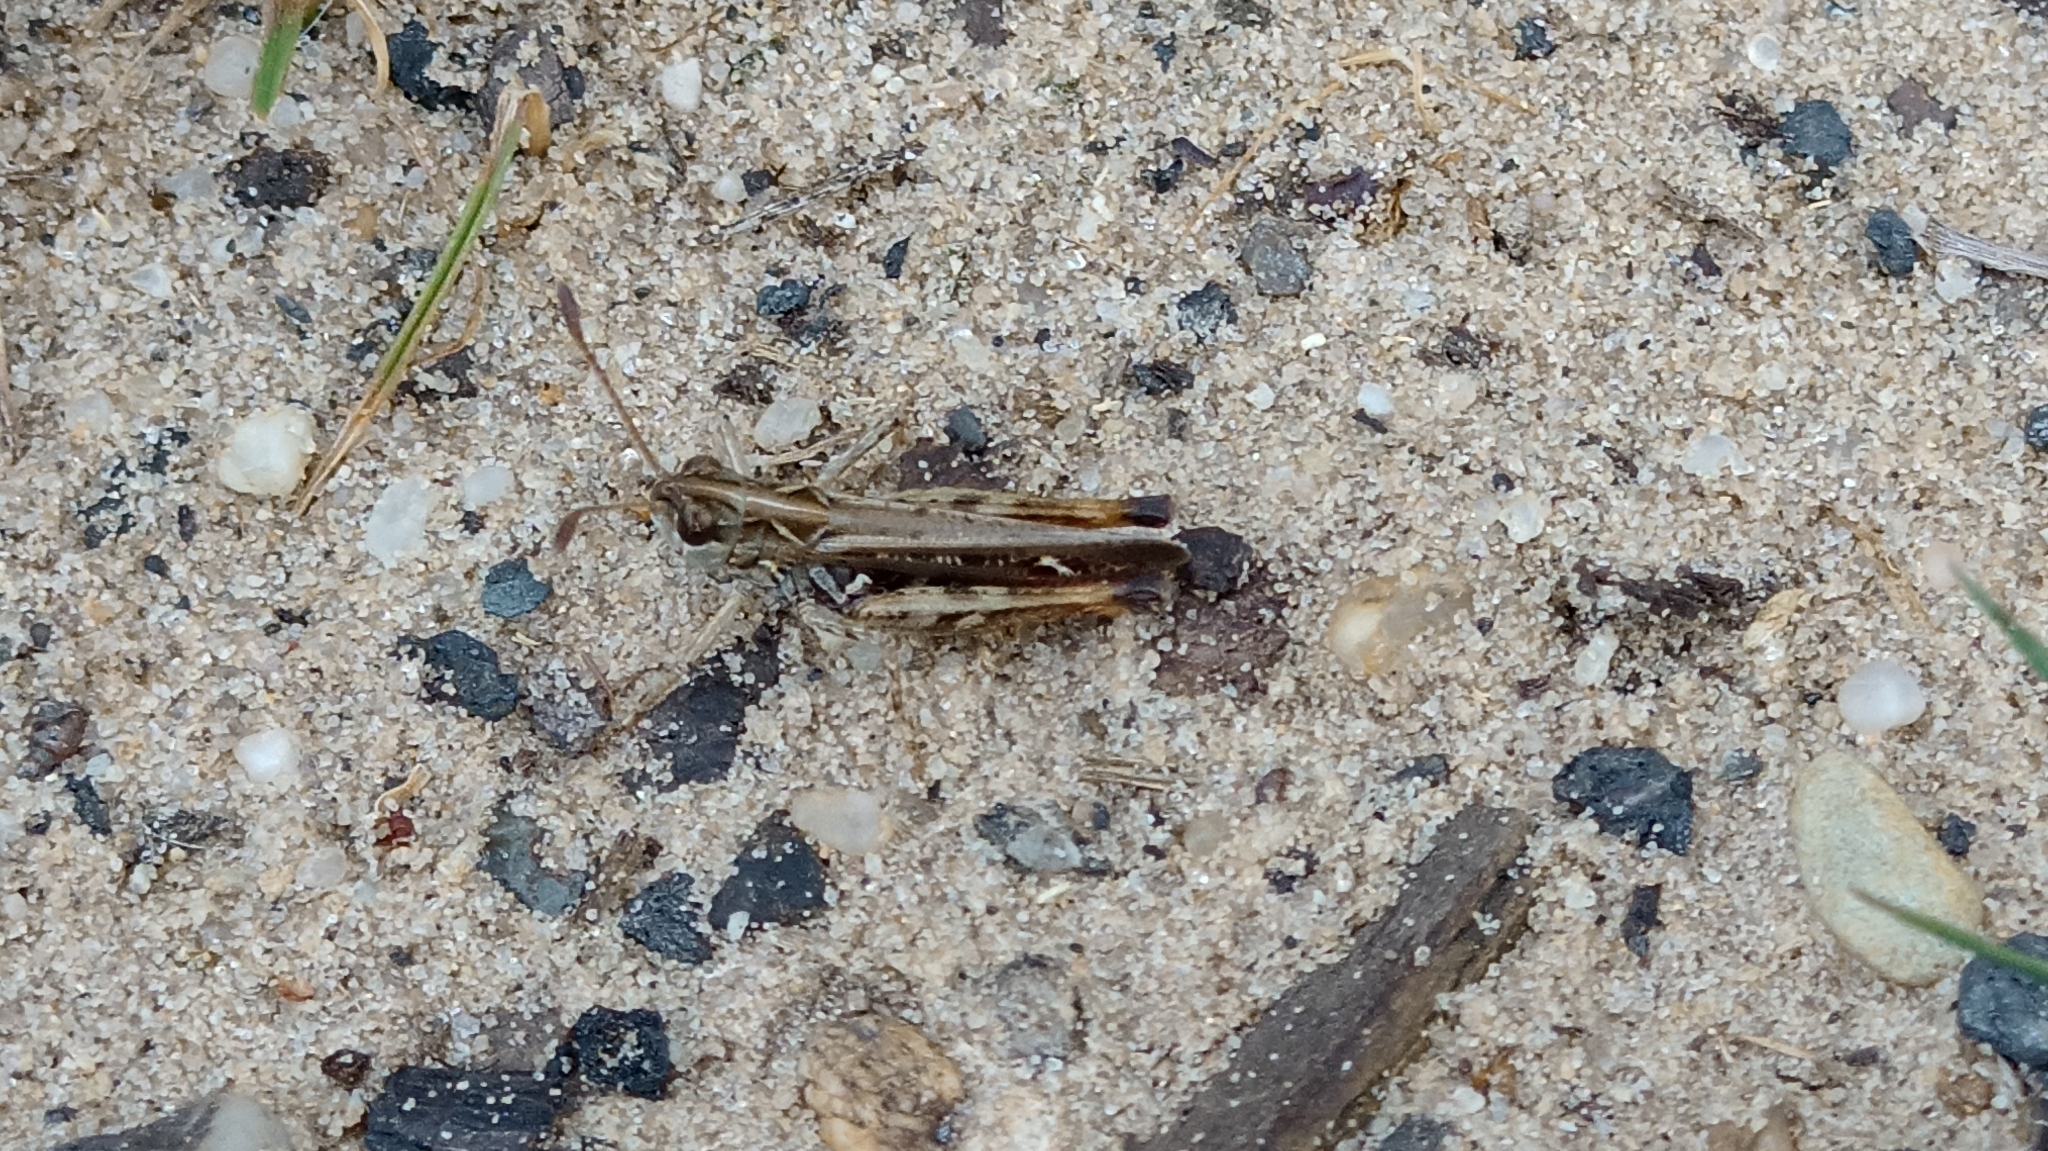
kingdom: Animalia
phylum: Arthropoda
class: Insecta
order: Orthoptera
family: Acrididae
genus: Myrmeleotettix
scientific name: Myrmeleotettix maculatus
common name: Mottled grasshopper
